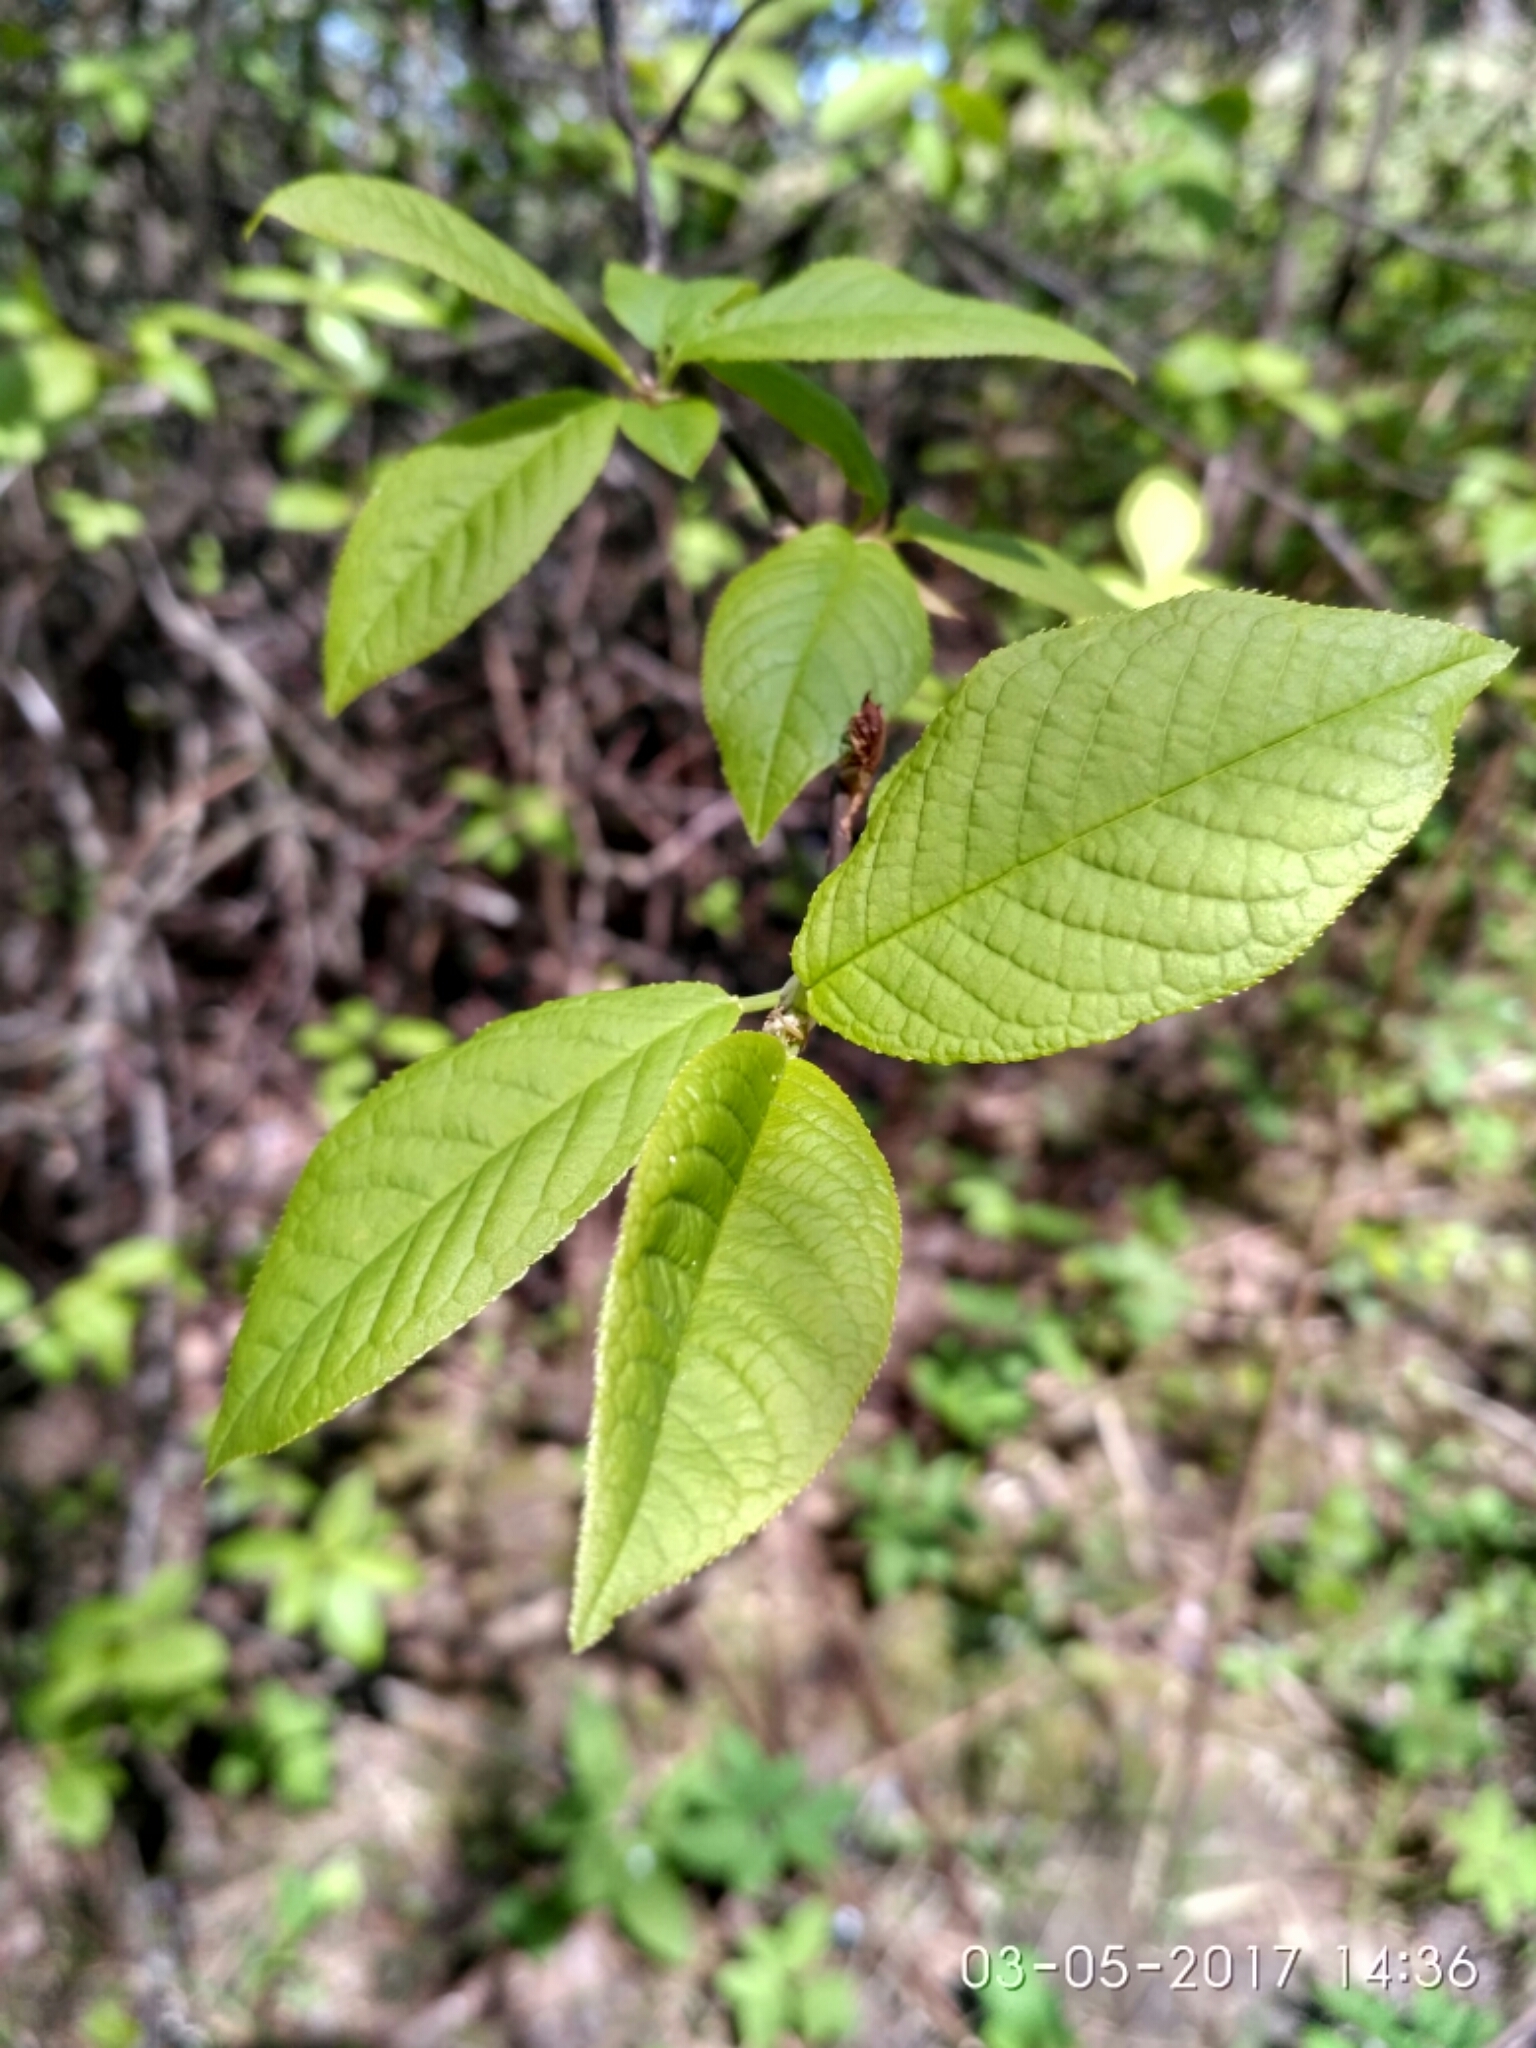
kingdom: Plantae
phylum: Tracheophyta
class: Magnoliopsida
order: Rosales
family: Rosaceae
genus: Prunus
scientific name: Prunus padus
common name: Bird cherry
